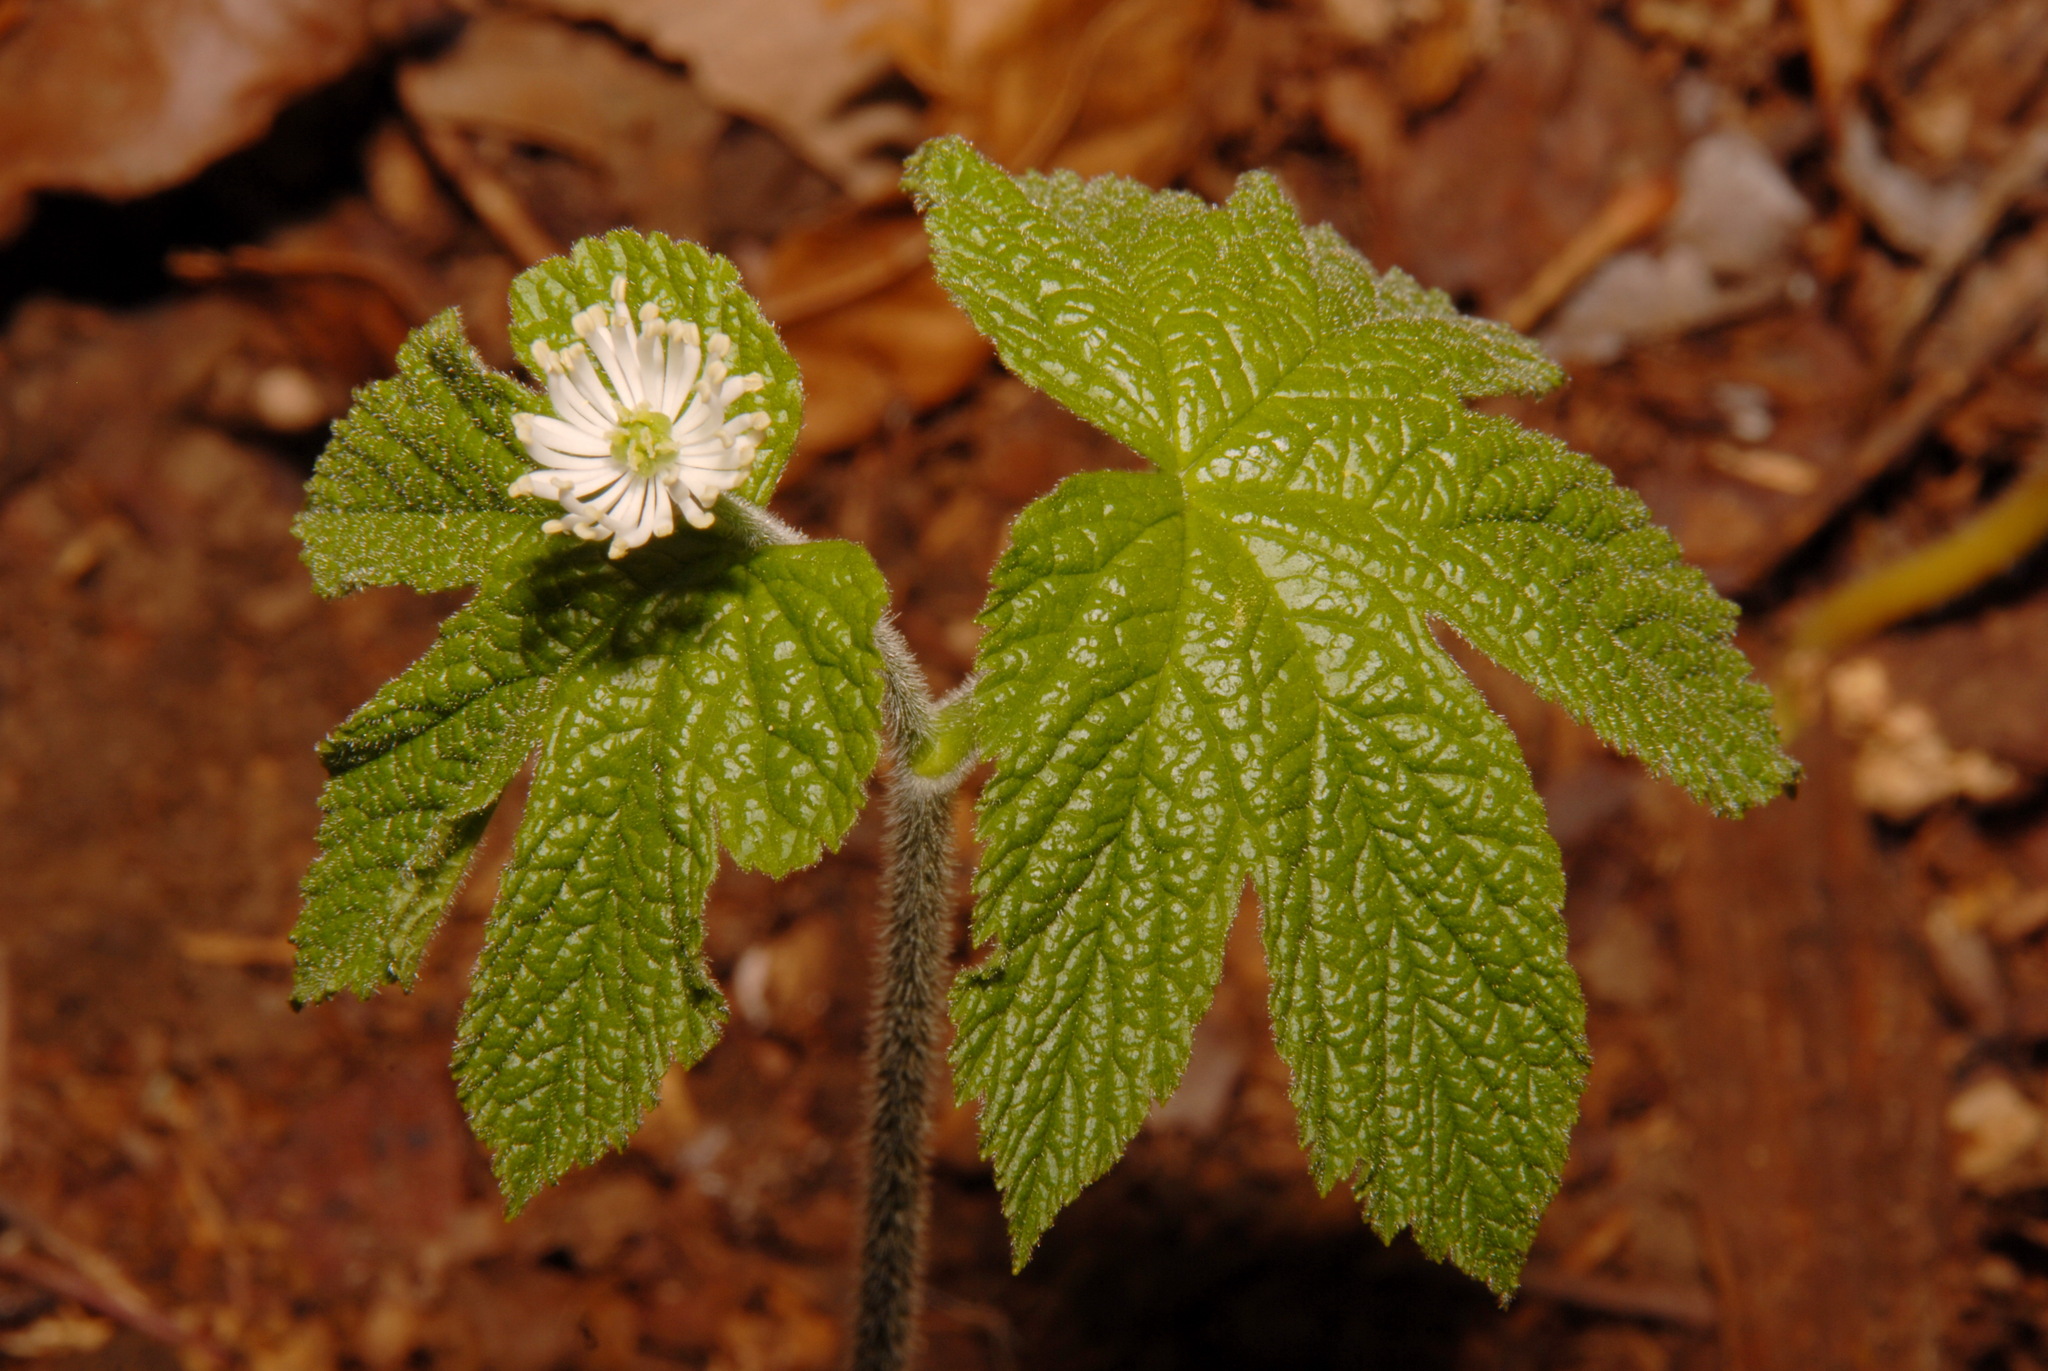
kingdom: Plantae
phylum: Tracheophyta
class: Magnoliopsida
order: Ranunculales
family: Ranunculaceae
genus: Hydrastis
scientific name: Hydrastis canadensis
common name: Goldenseal
